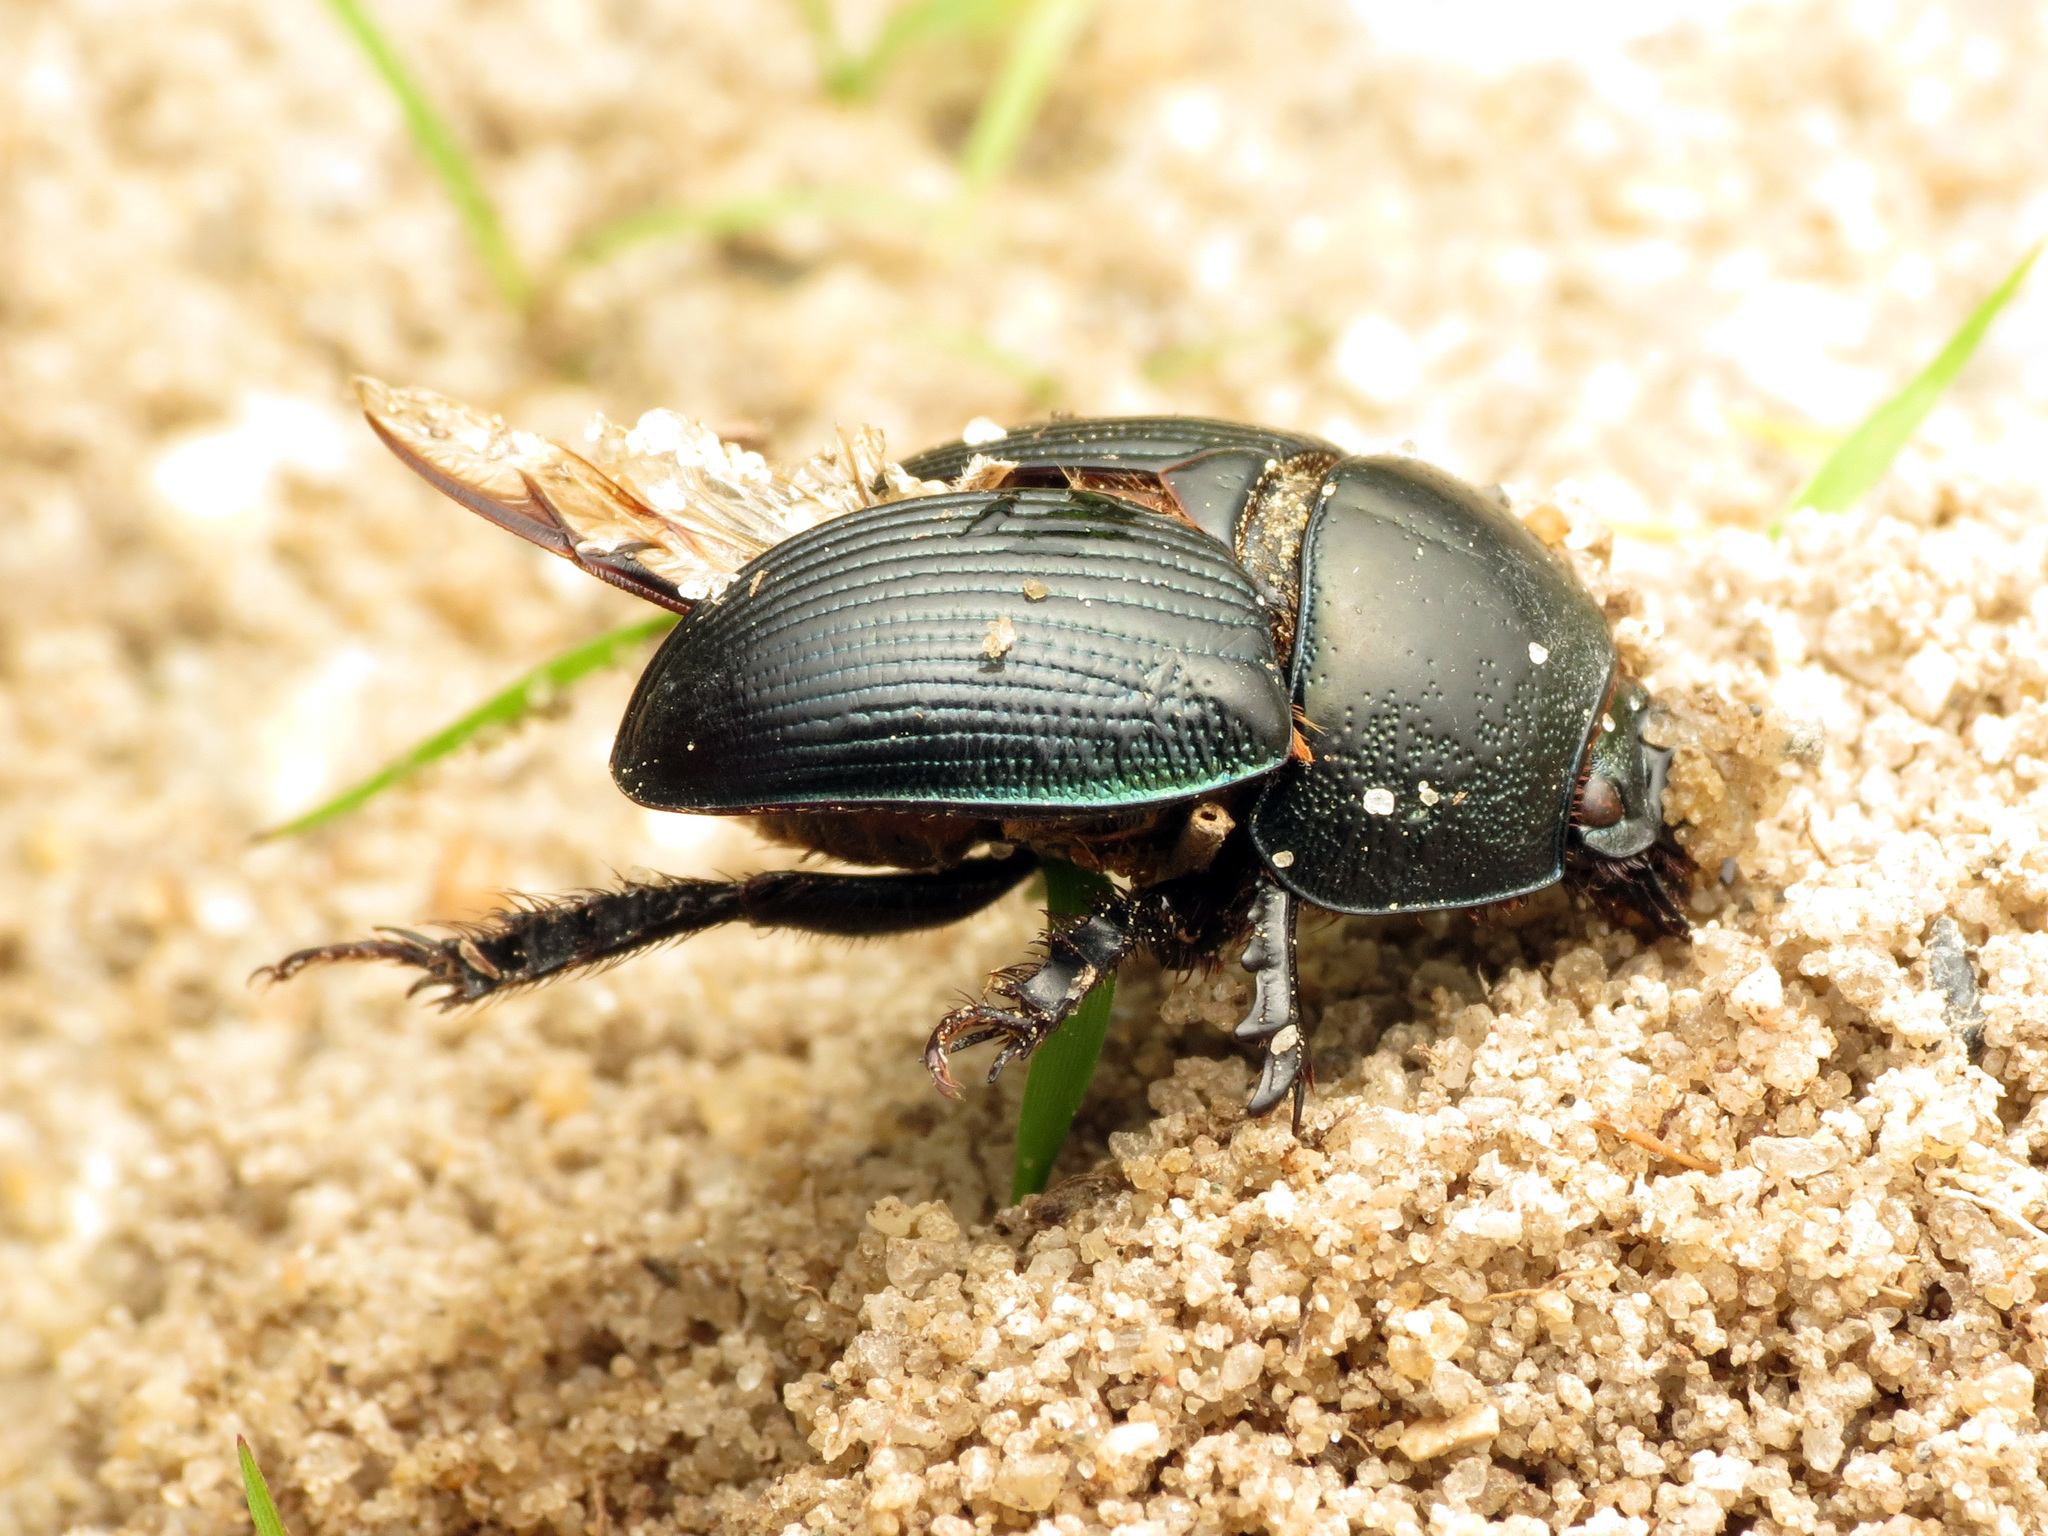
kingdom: Animalia
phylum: Arthropoda
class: Insecta
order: Coleoptera
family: Geotrupidae
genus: Geotrupes
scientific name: Geotrupes egeriei
